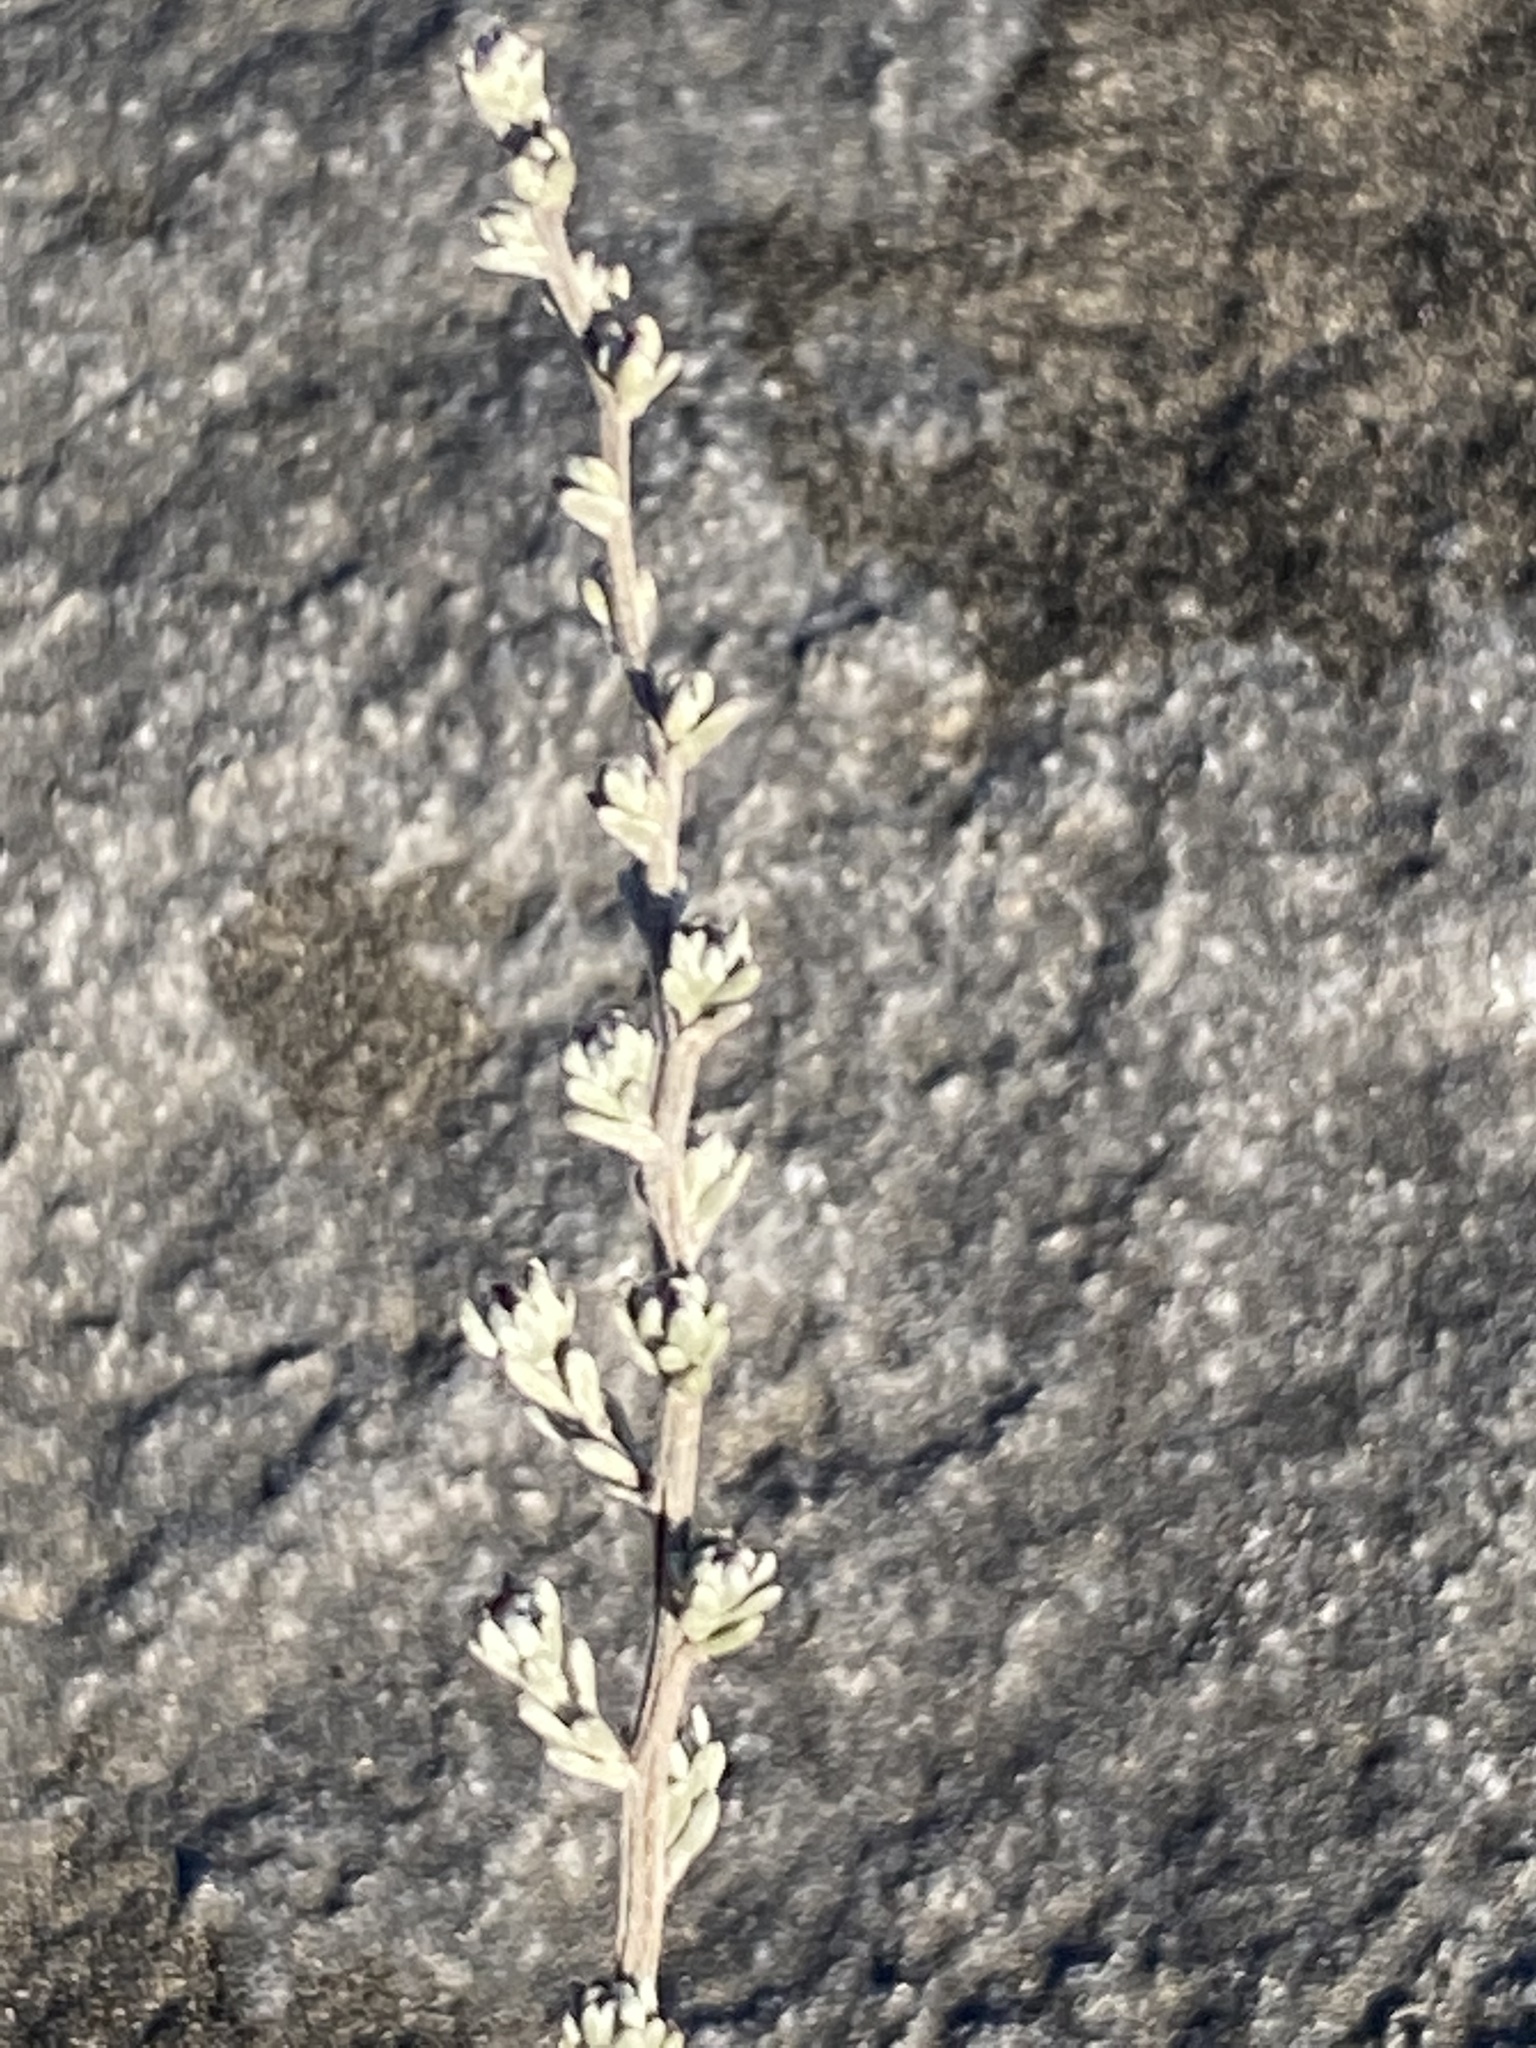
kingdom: Plantae
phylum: Tracheophyta
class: Magnoliopsida
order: Asterales
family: Asteraceae
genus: Eriocephalus
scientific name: Eriocephalus africanus
